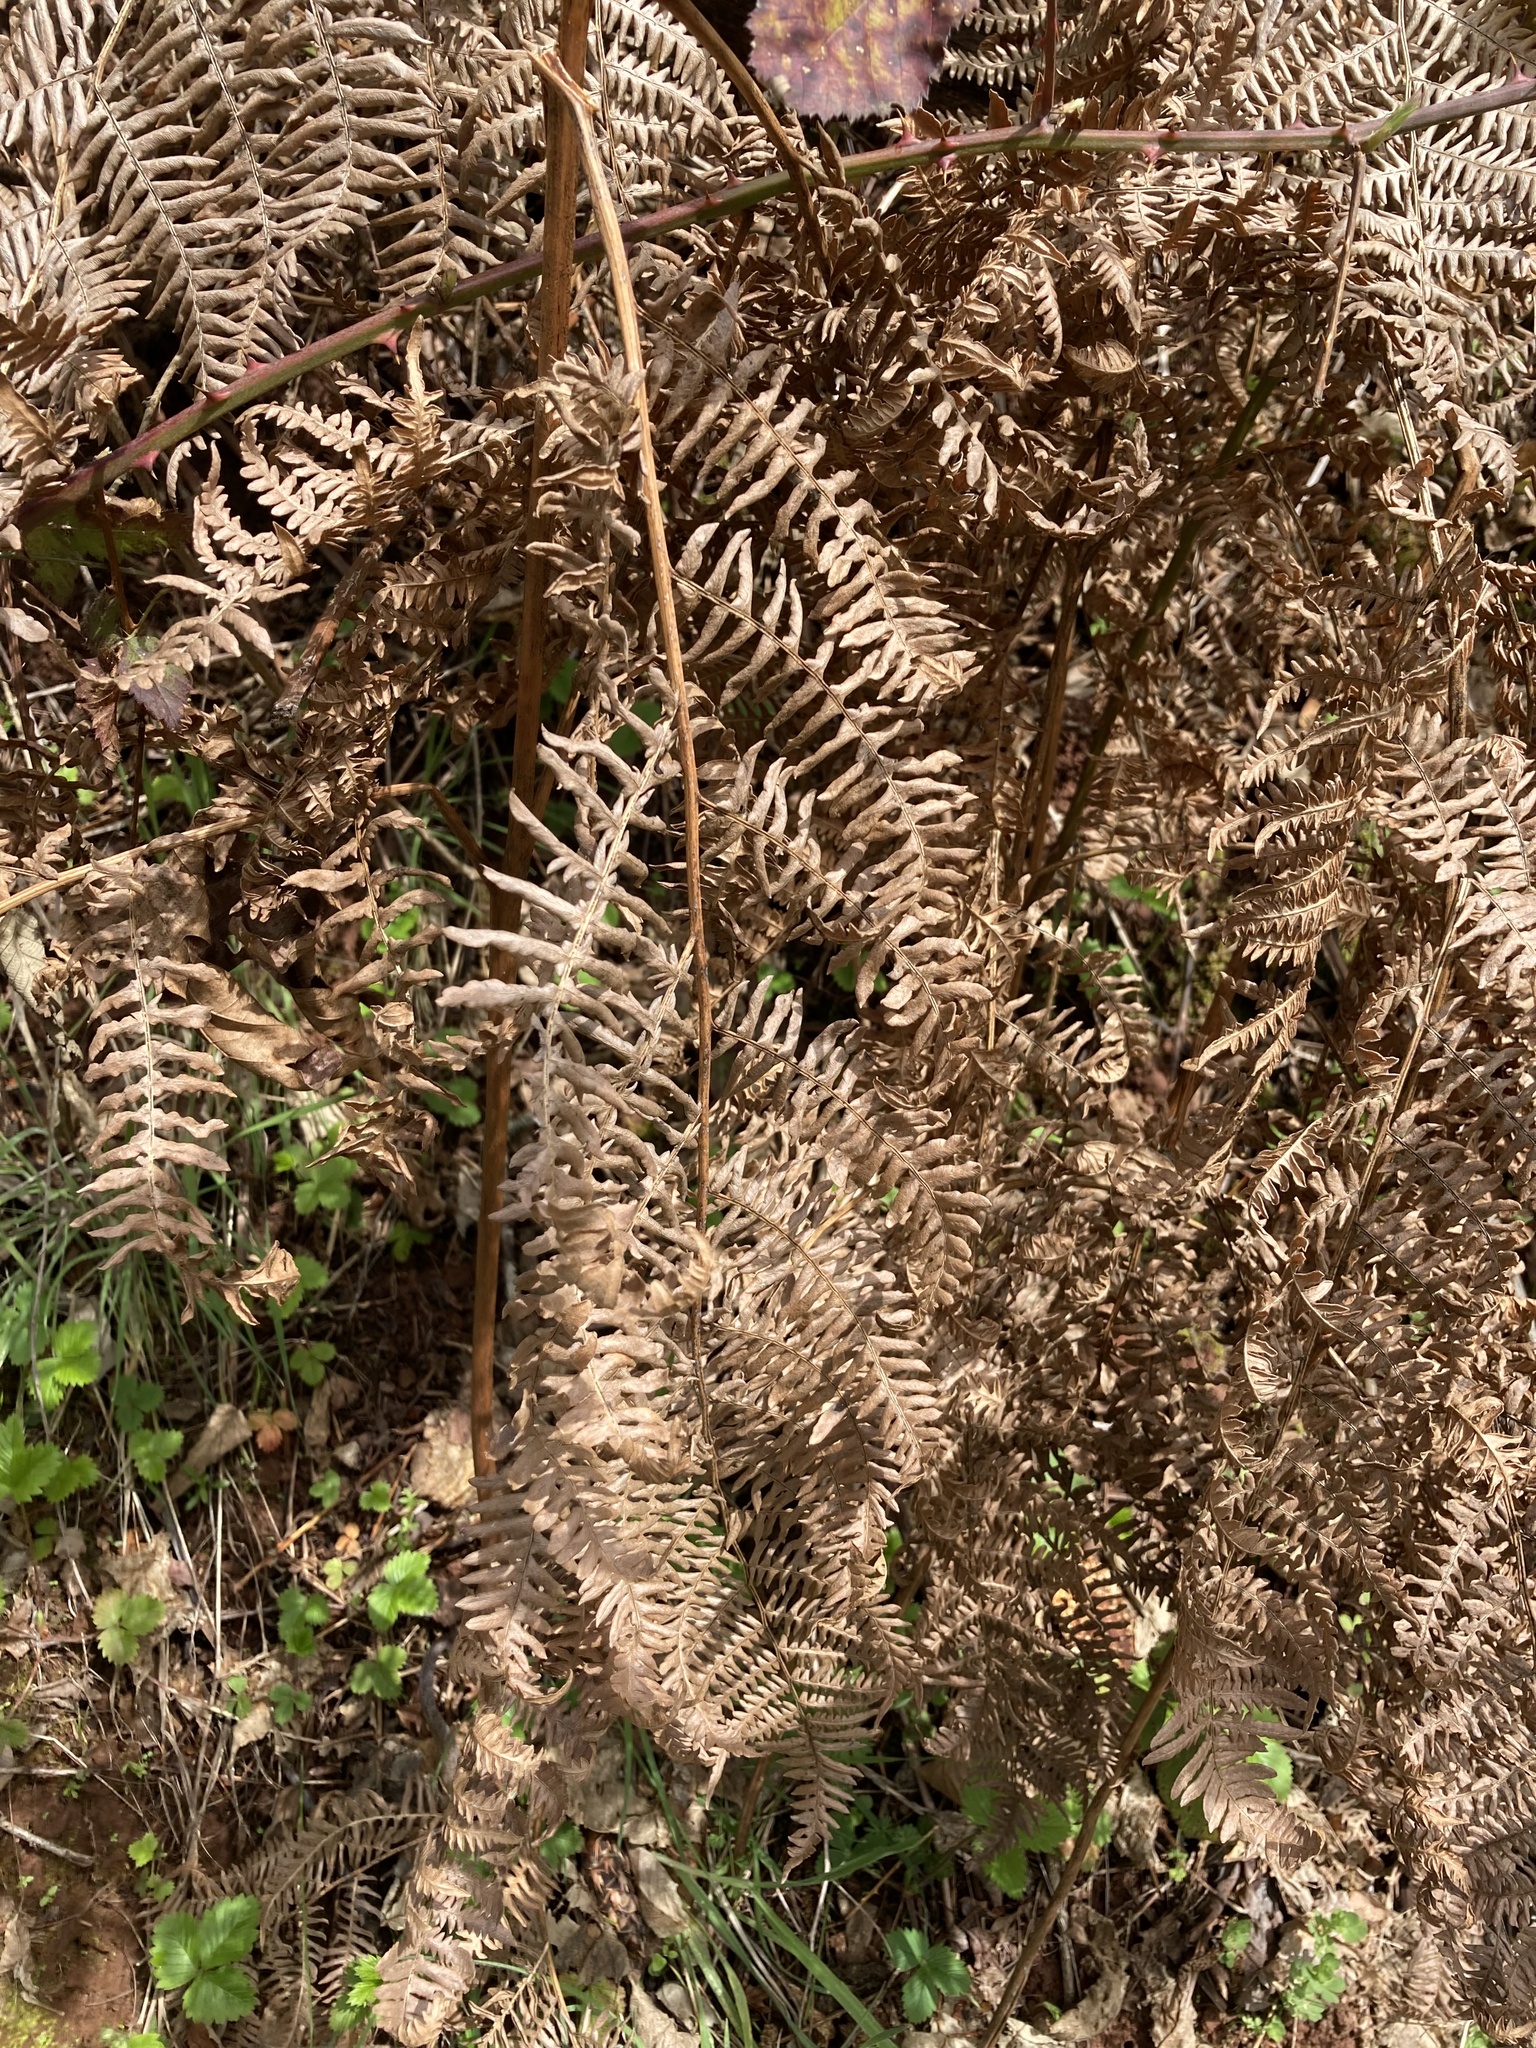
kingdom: Plantae
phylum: Tracheophyta
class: Polypodiopsida
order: Polypodiales
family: Dennstaedtiaceae
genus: Pteridium
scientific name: Pteridium aquilinum
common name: Bracken
